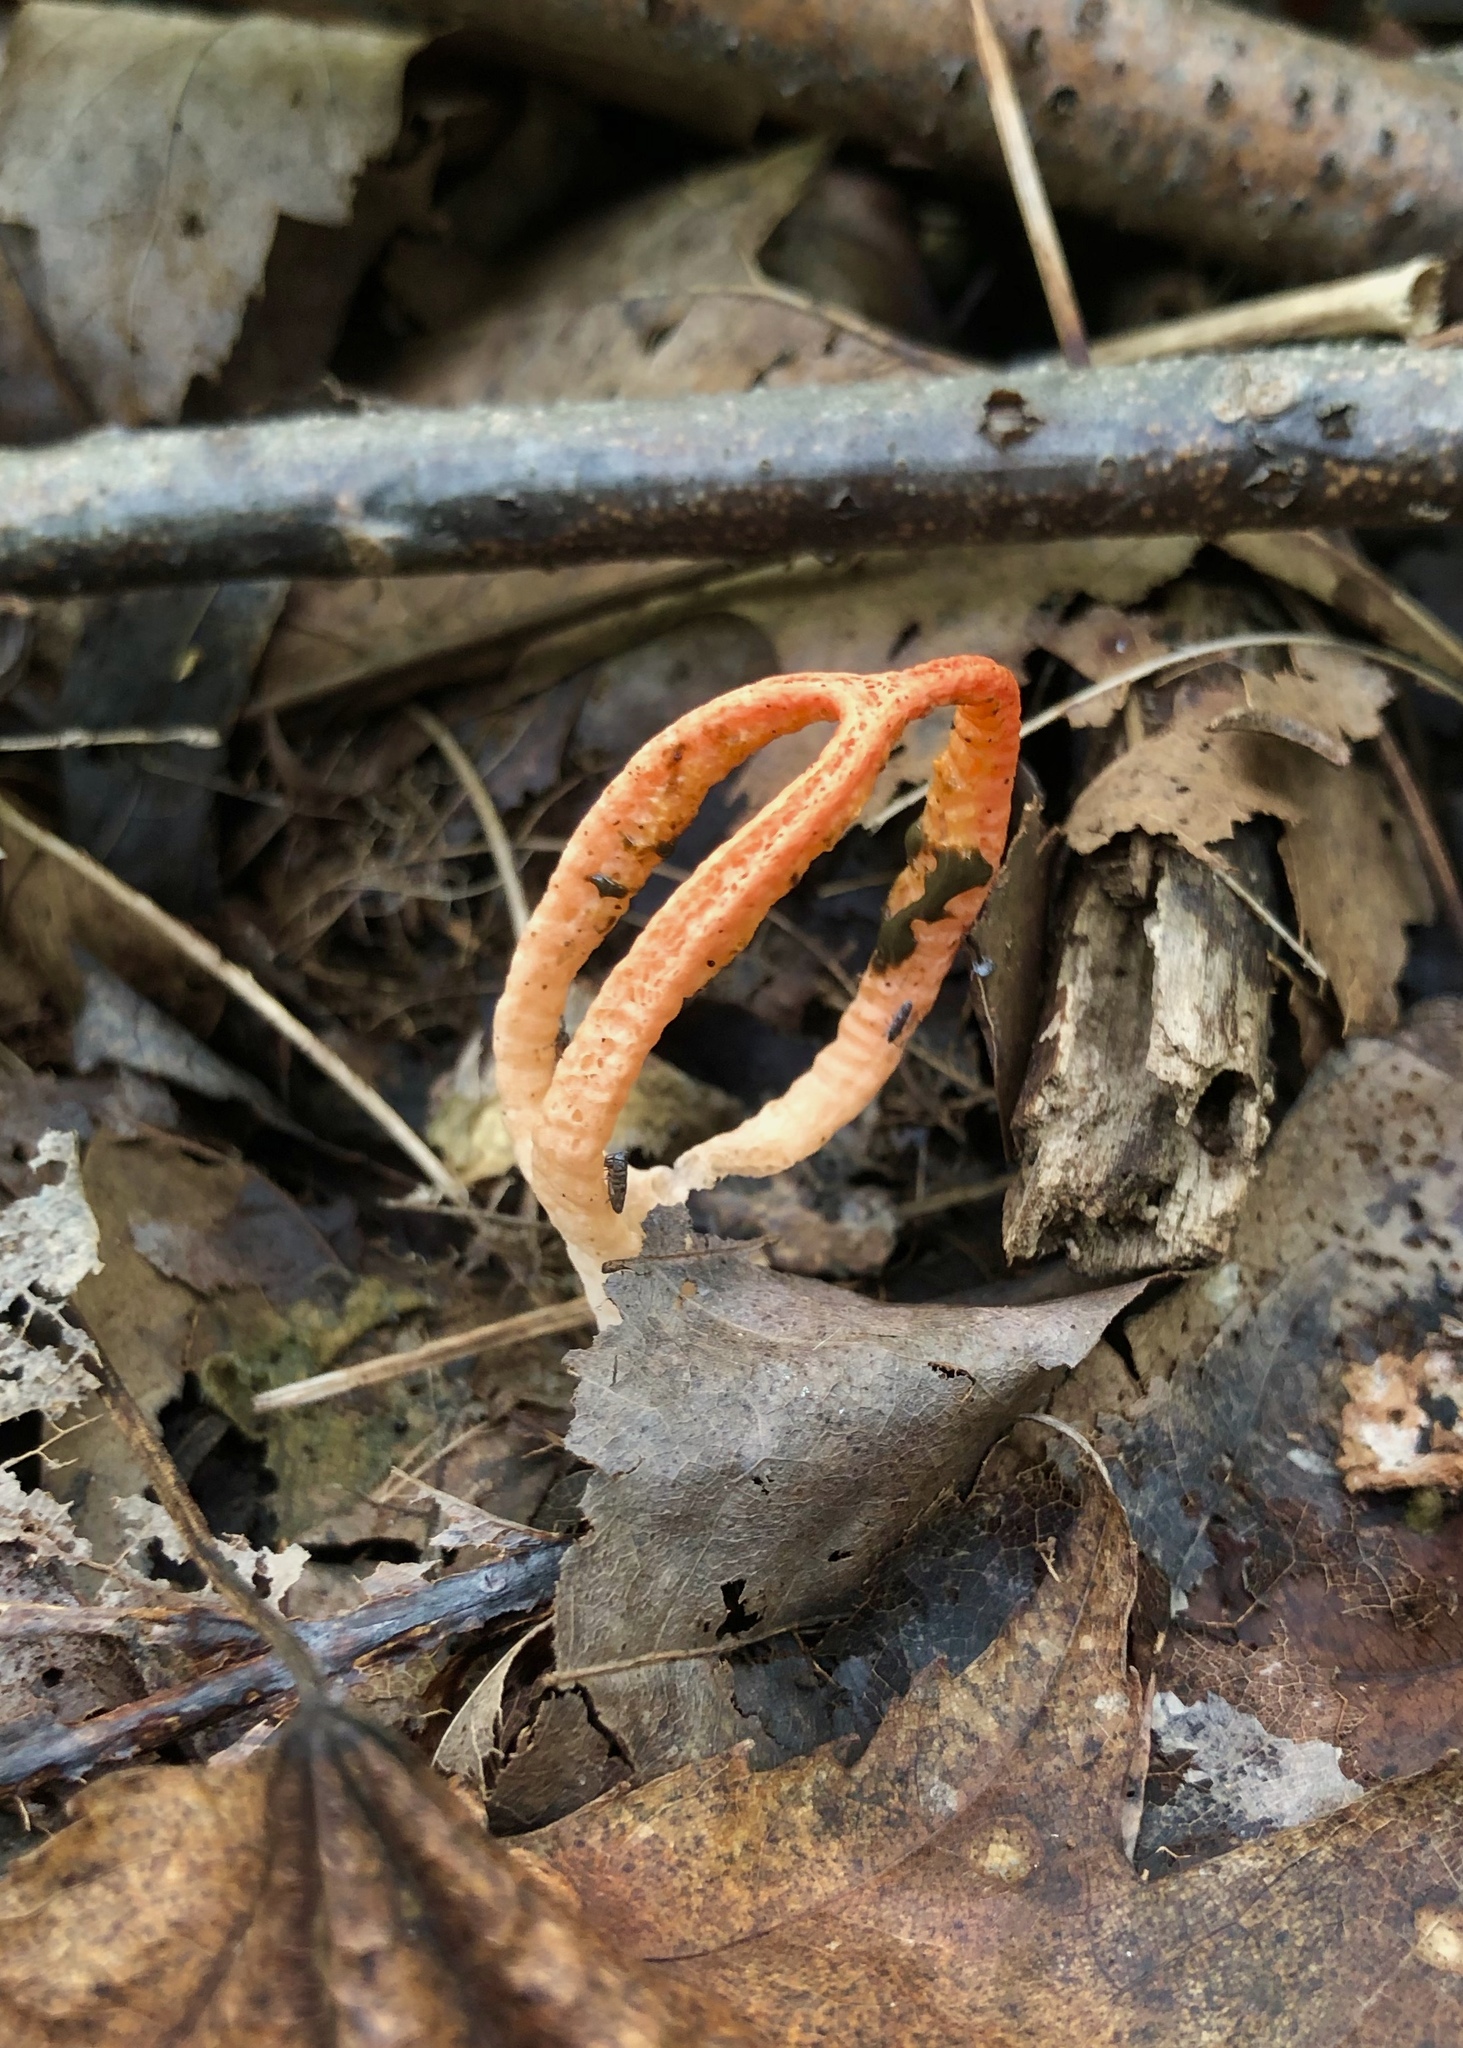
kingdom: Fungi
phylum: Basidiomycota
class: Agaricomycetes
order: Phallales
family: Phallaceae
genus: Pseudocolus
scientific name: Pseudocolus fusiformis
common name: Stinky squid
